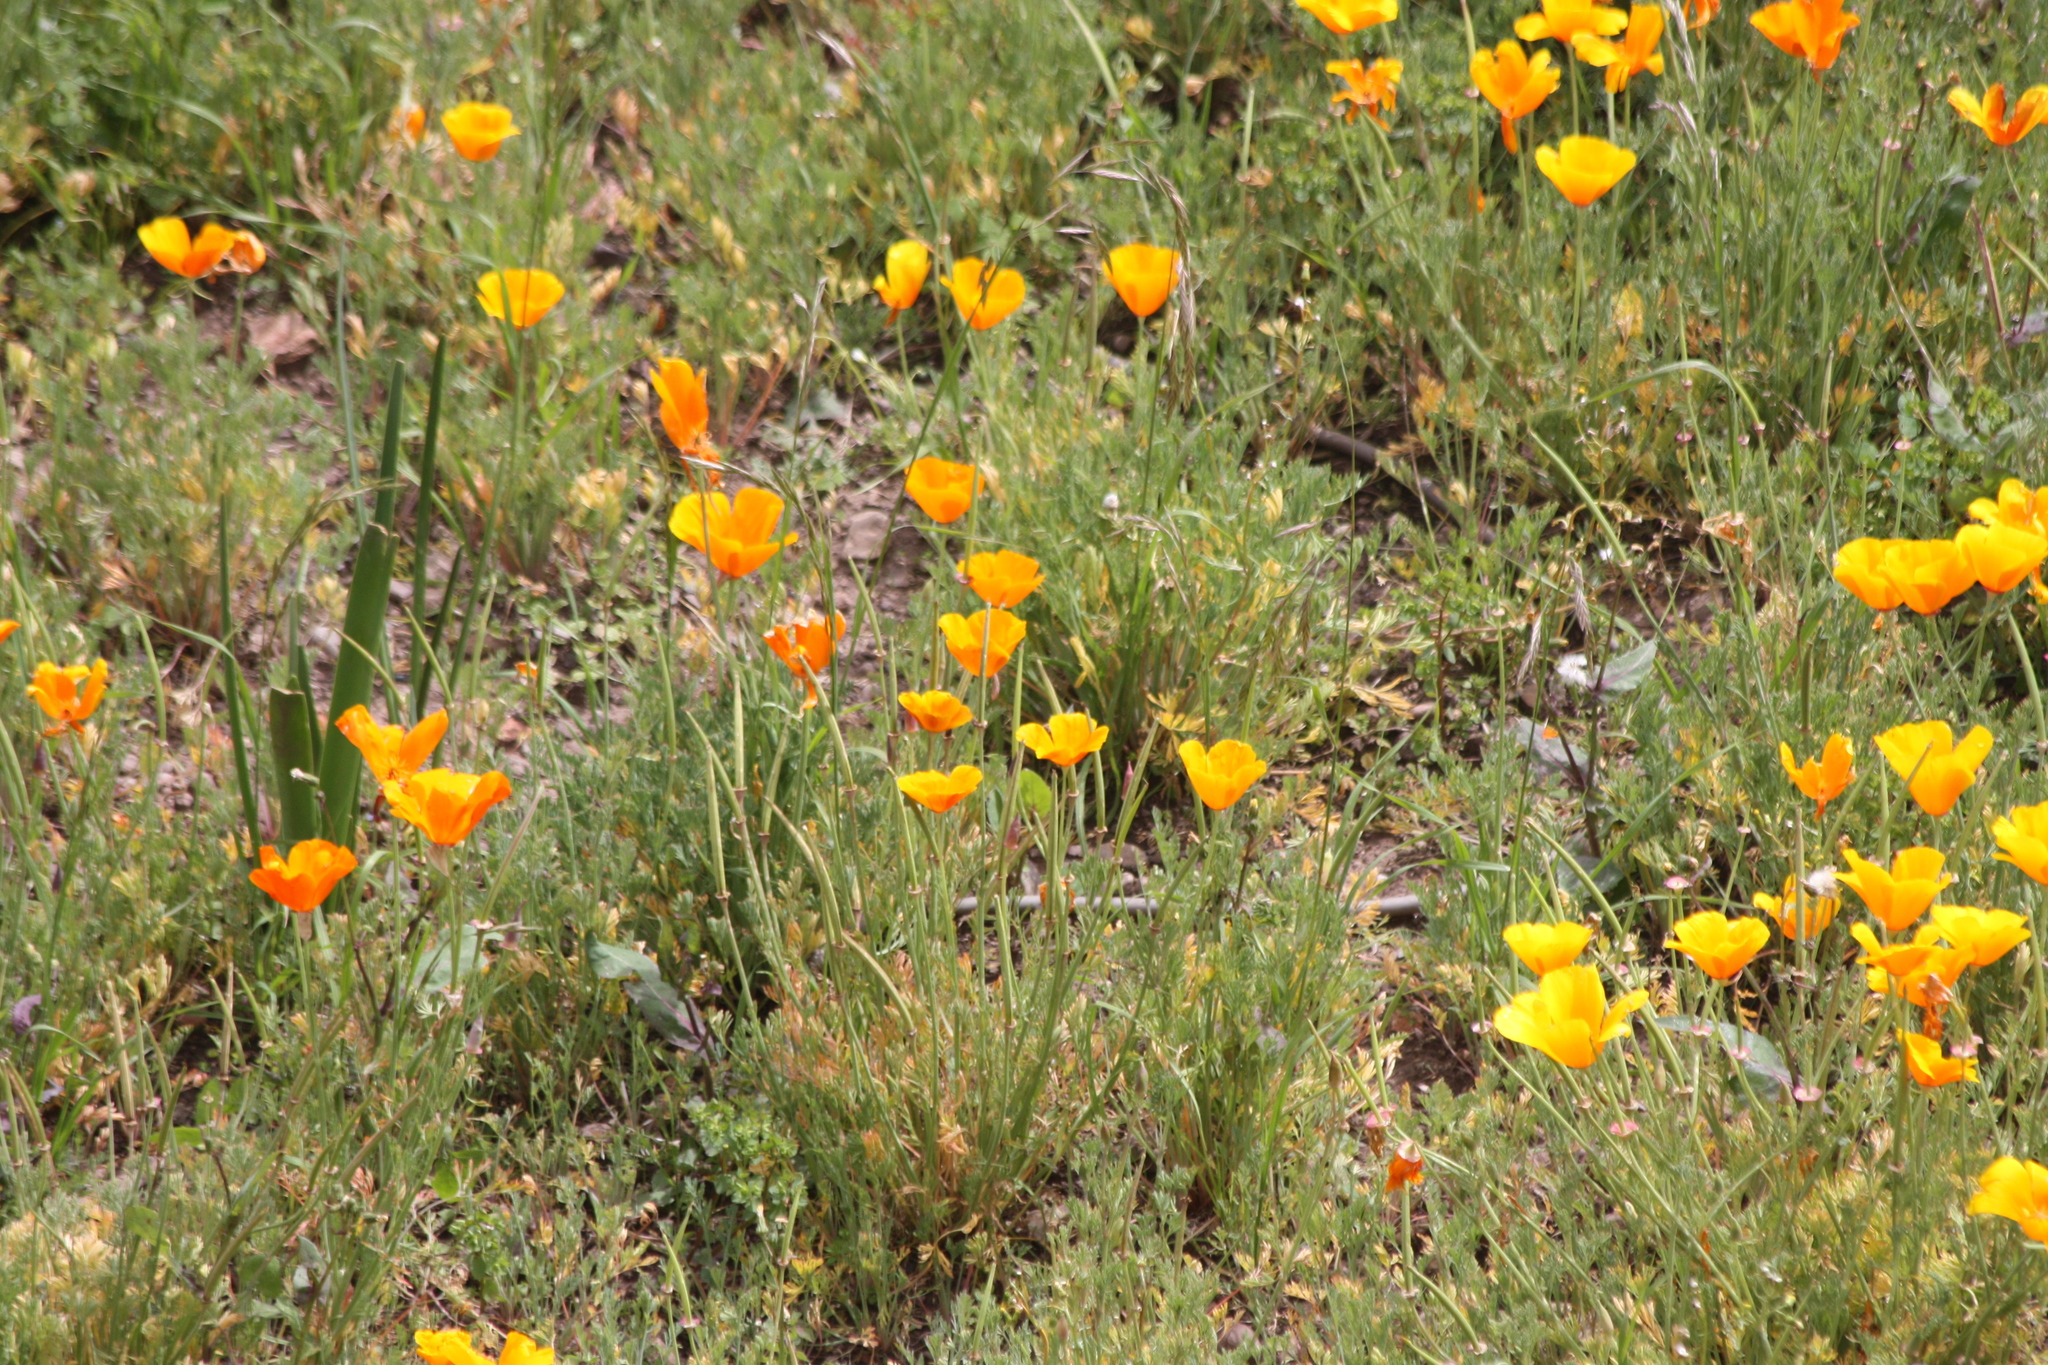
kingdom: Plantae
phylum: Tracheophyta
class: Magnoliopsida
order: Ranunculales
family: Papaveraceae
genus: Eschscholzia
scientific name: Eschscholzia californica
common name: California poppy
